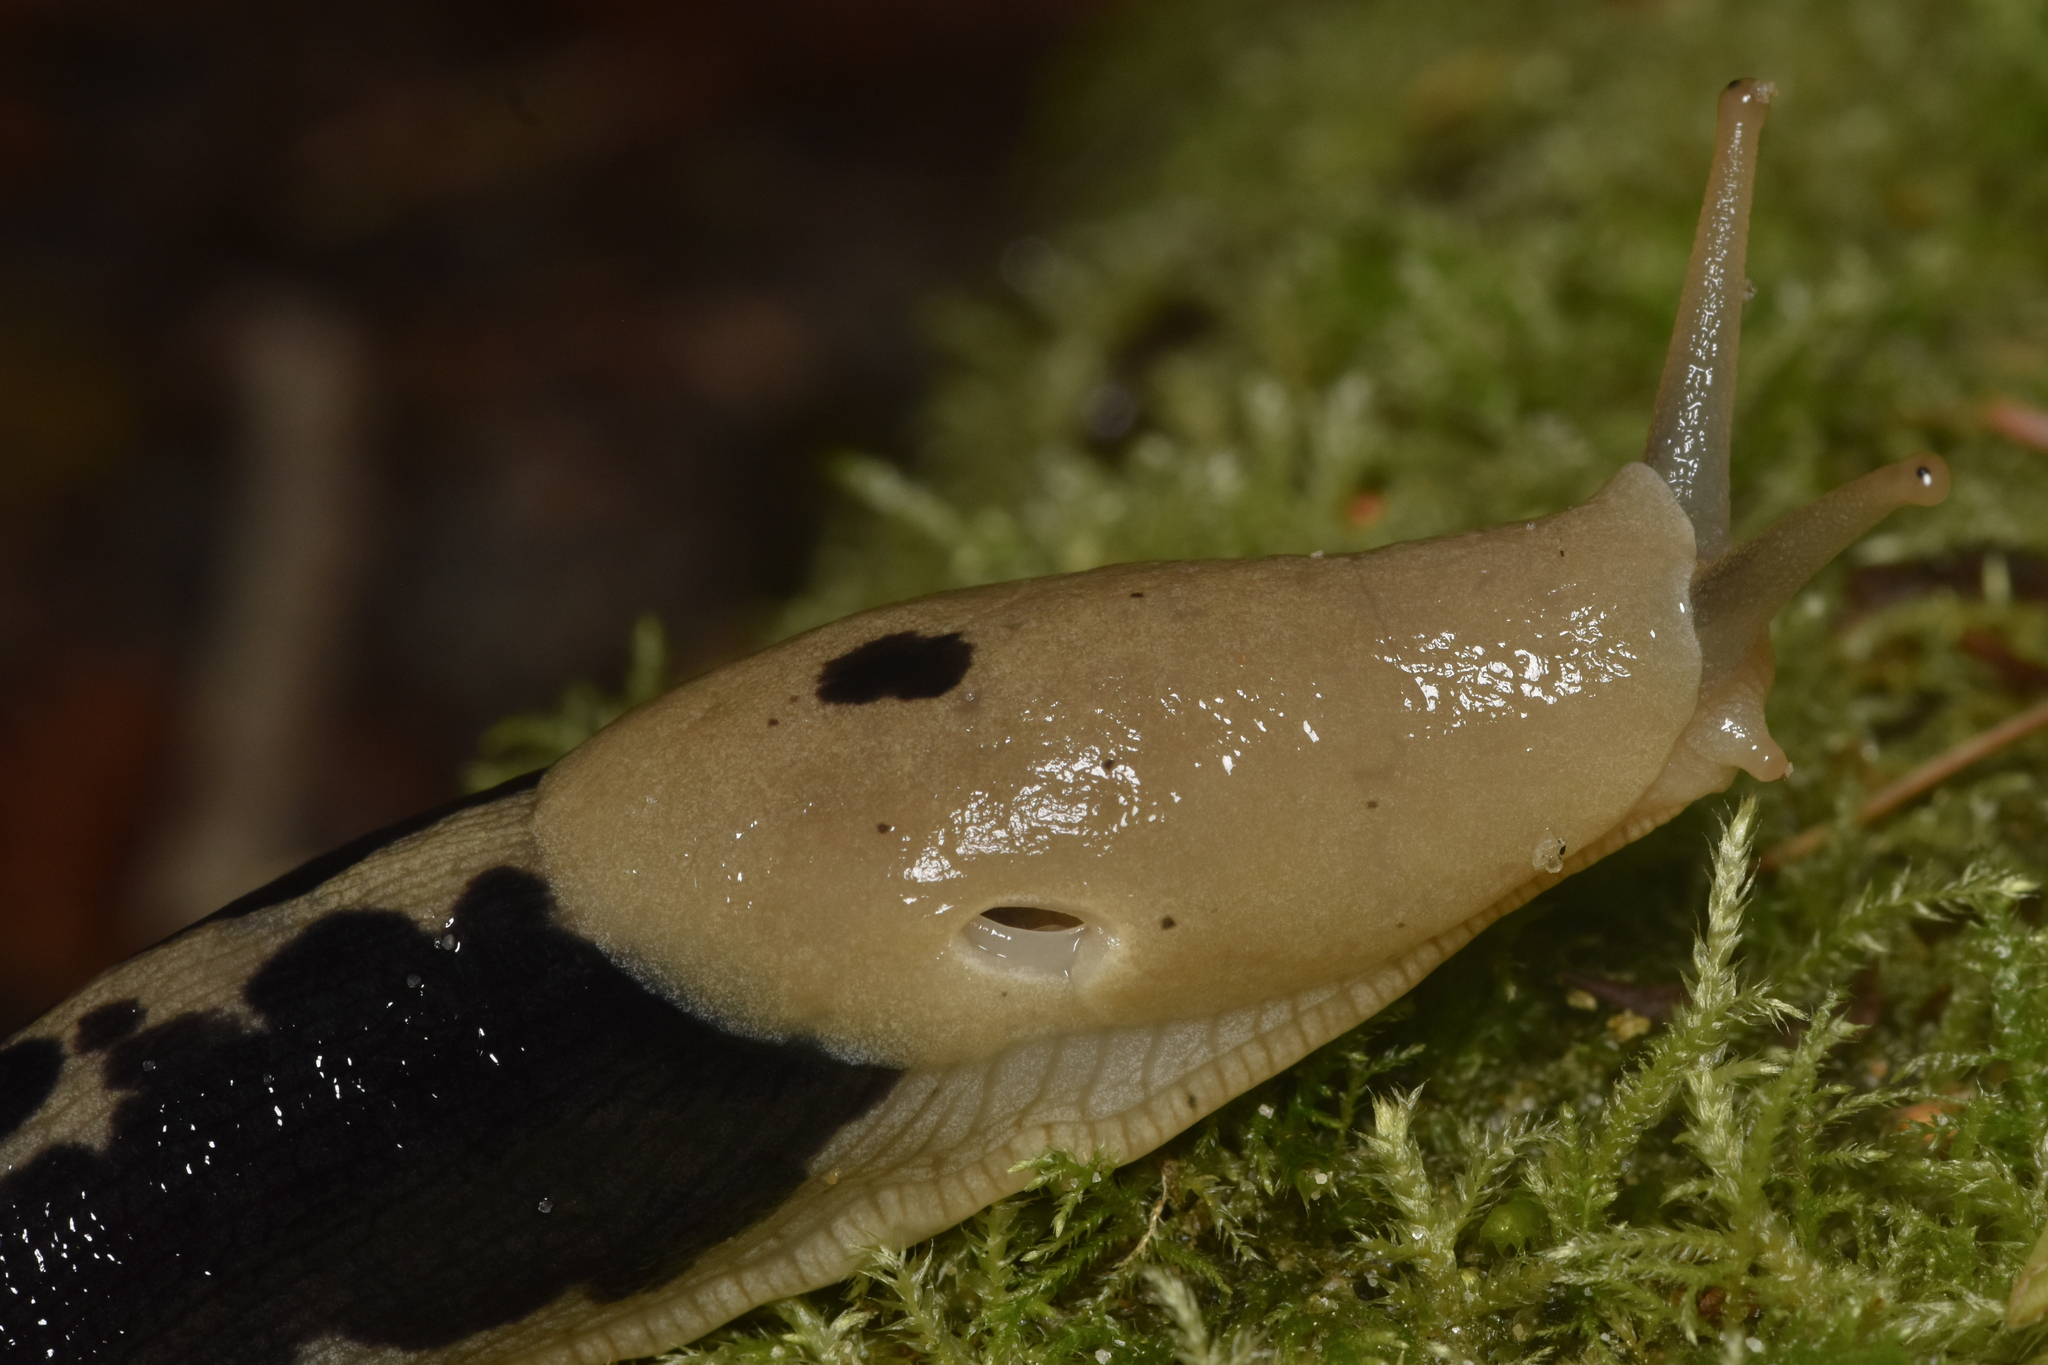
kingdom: Animalia
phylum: Mollusca
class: Gastropoda
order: Stylommatophora
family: Ariolimacidae
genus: Ariolimax
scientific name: Ariolimax columbianus
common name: Pacific banana slug
